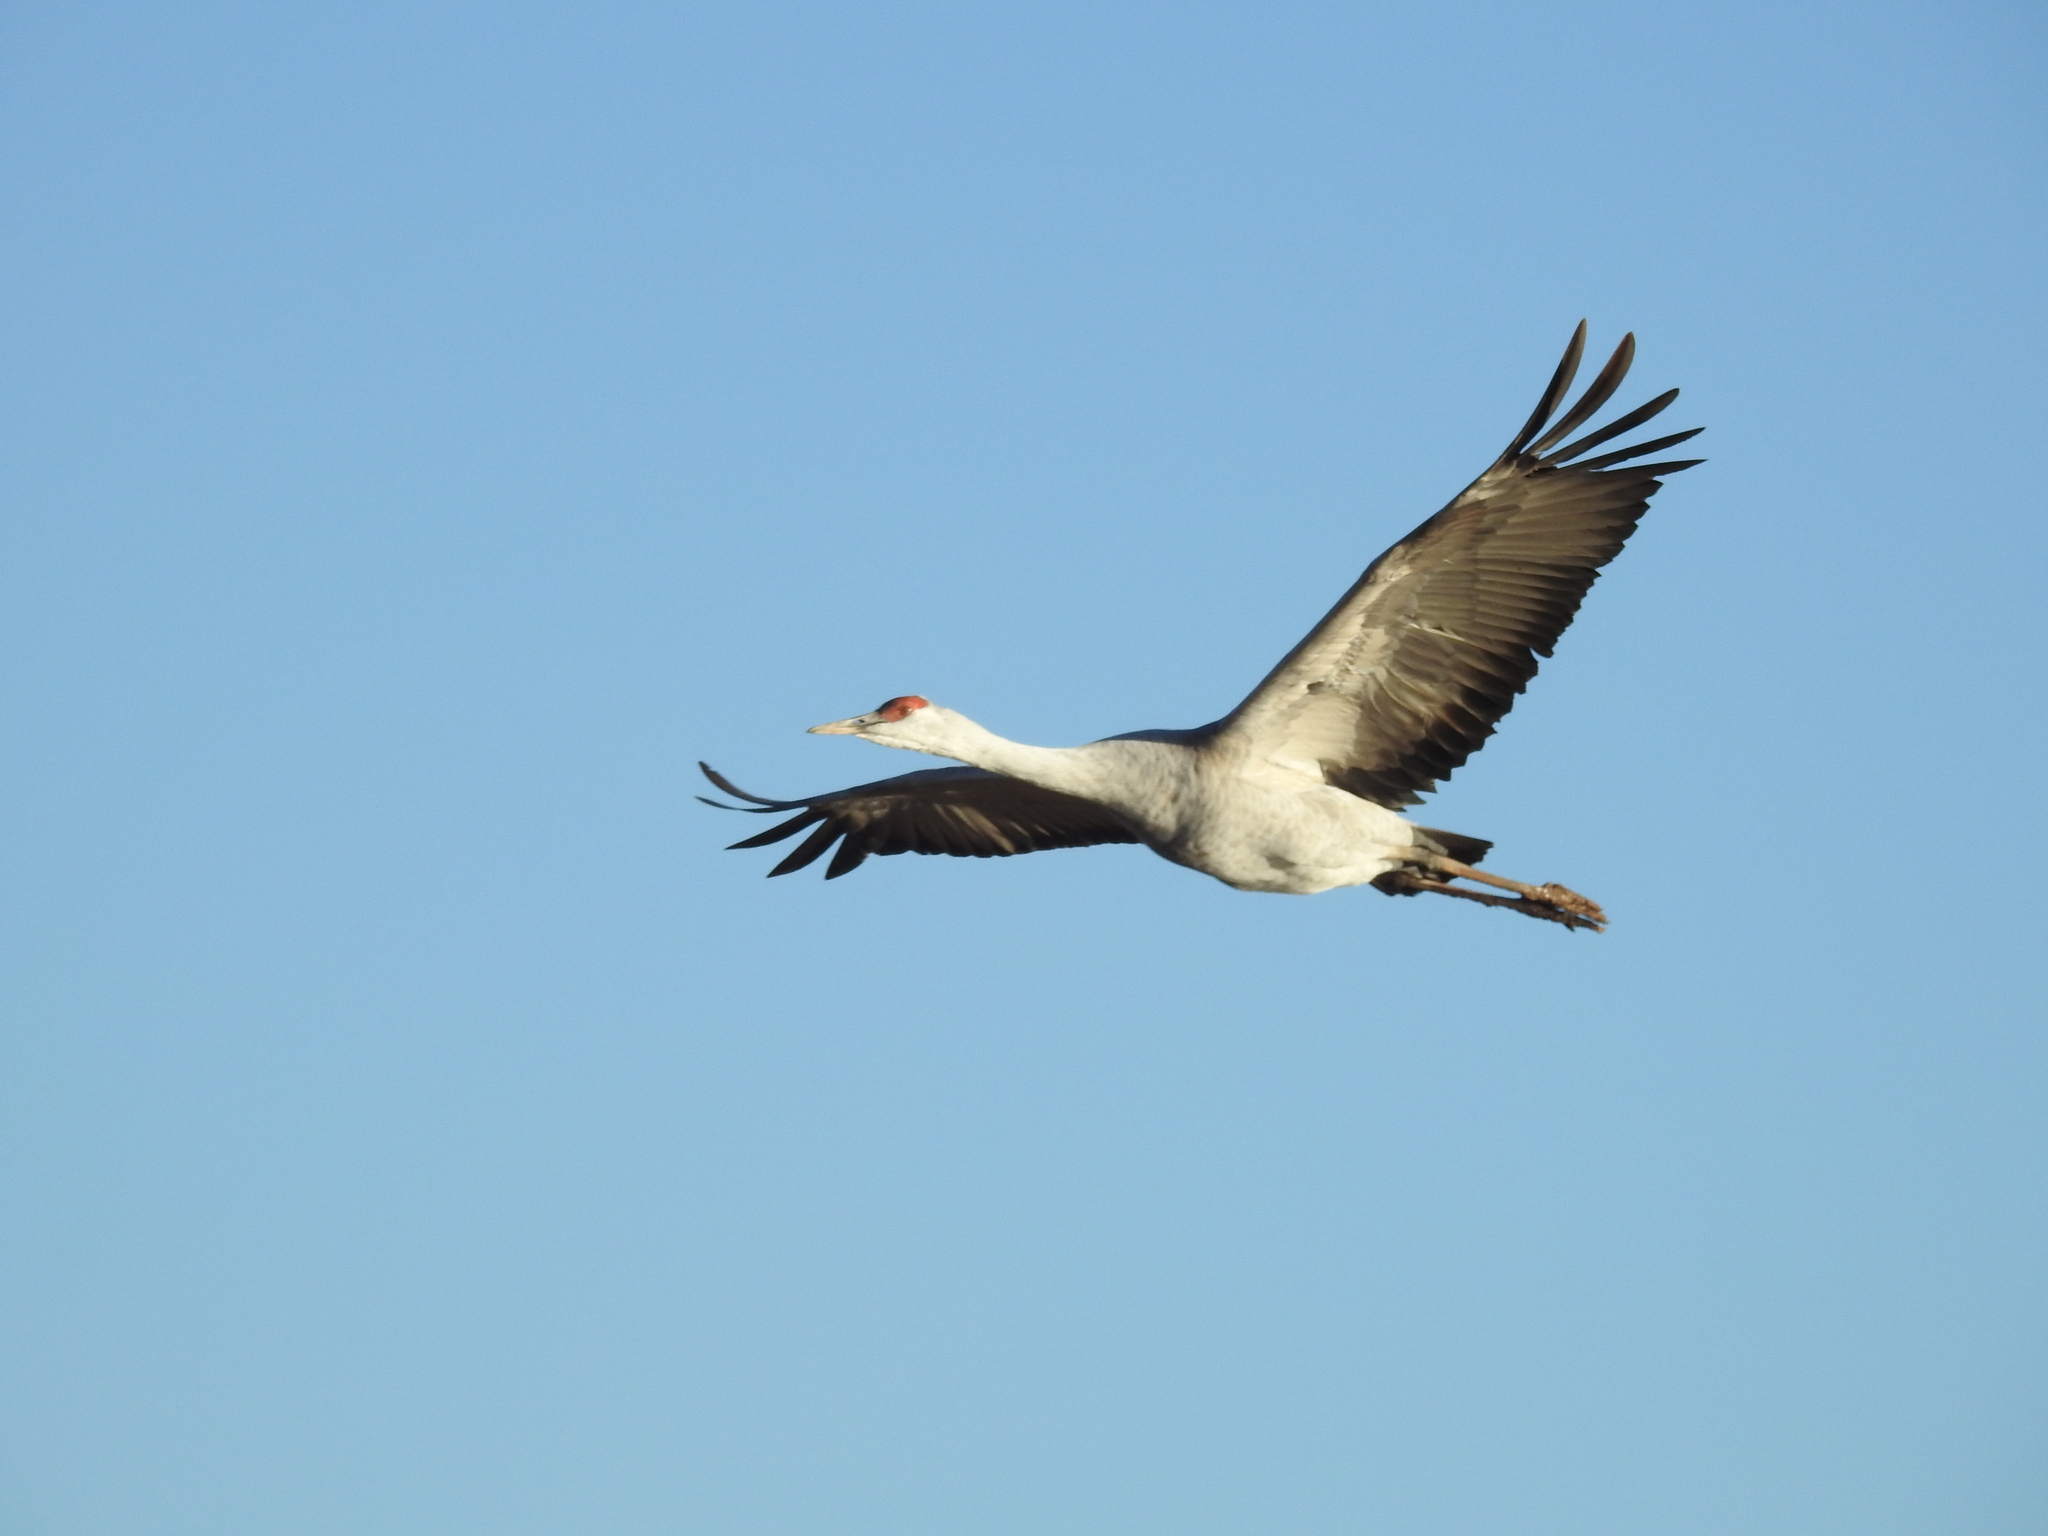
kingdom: Animalia
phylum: Chordata
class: Aves
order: Gruiformes
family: Gruidae
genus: Grus
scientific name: Grus canadensis
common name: Sandhill crane
